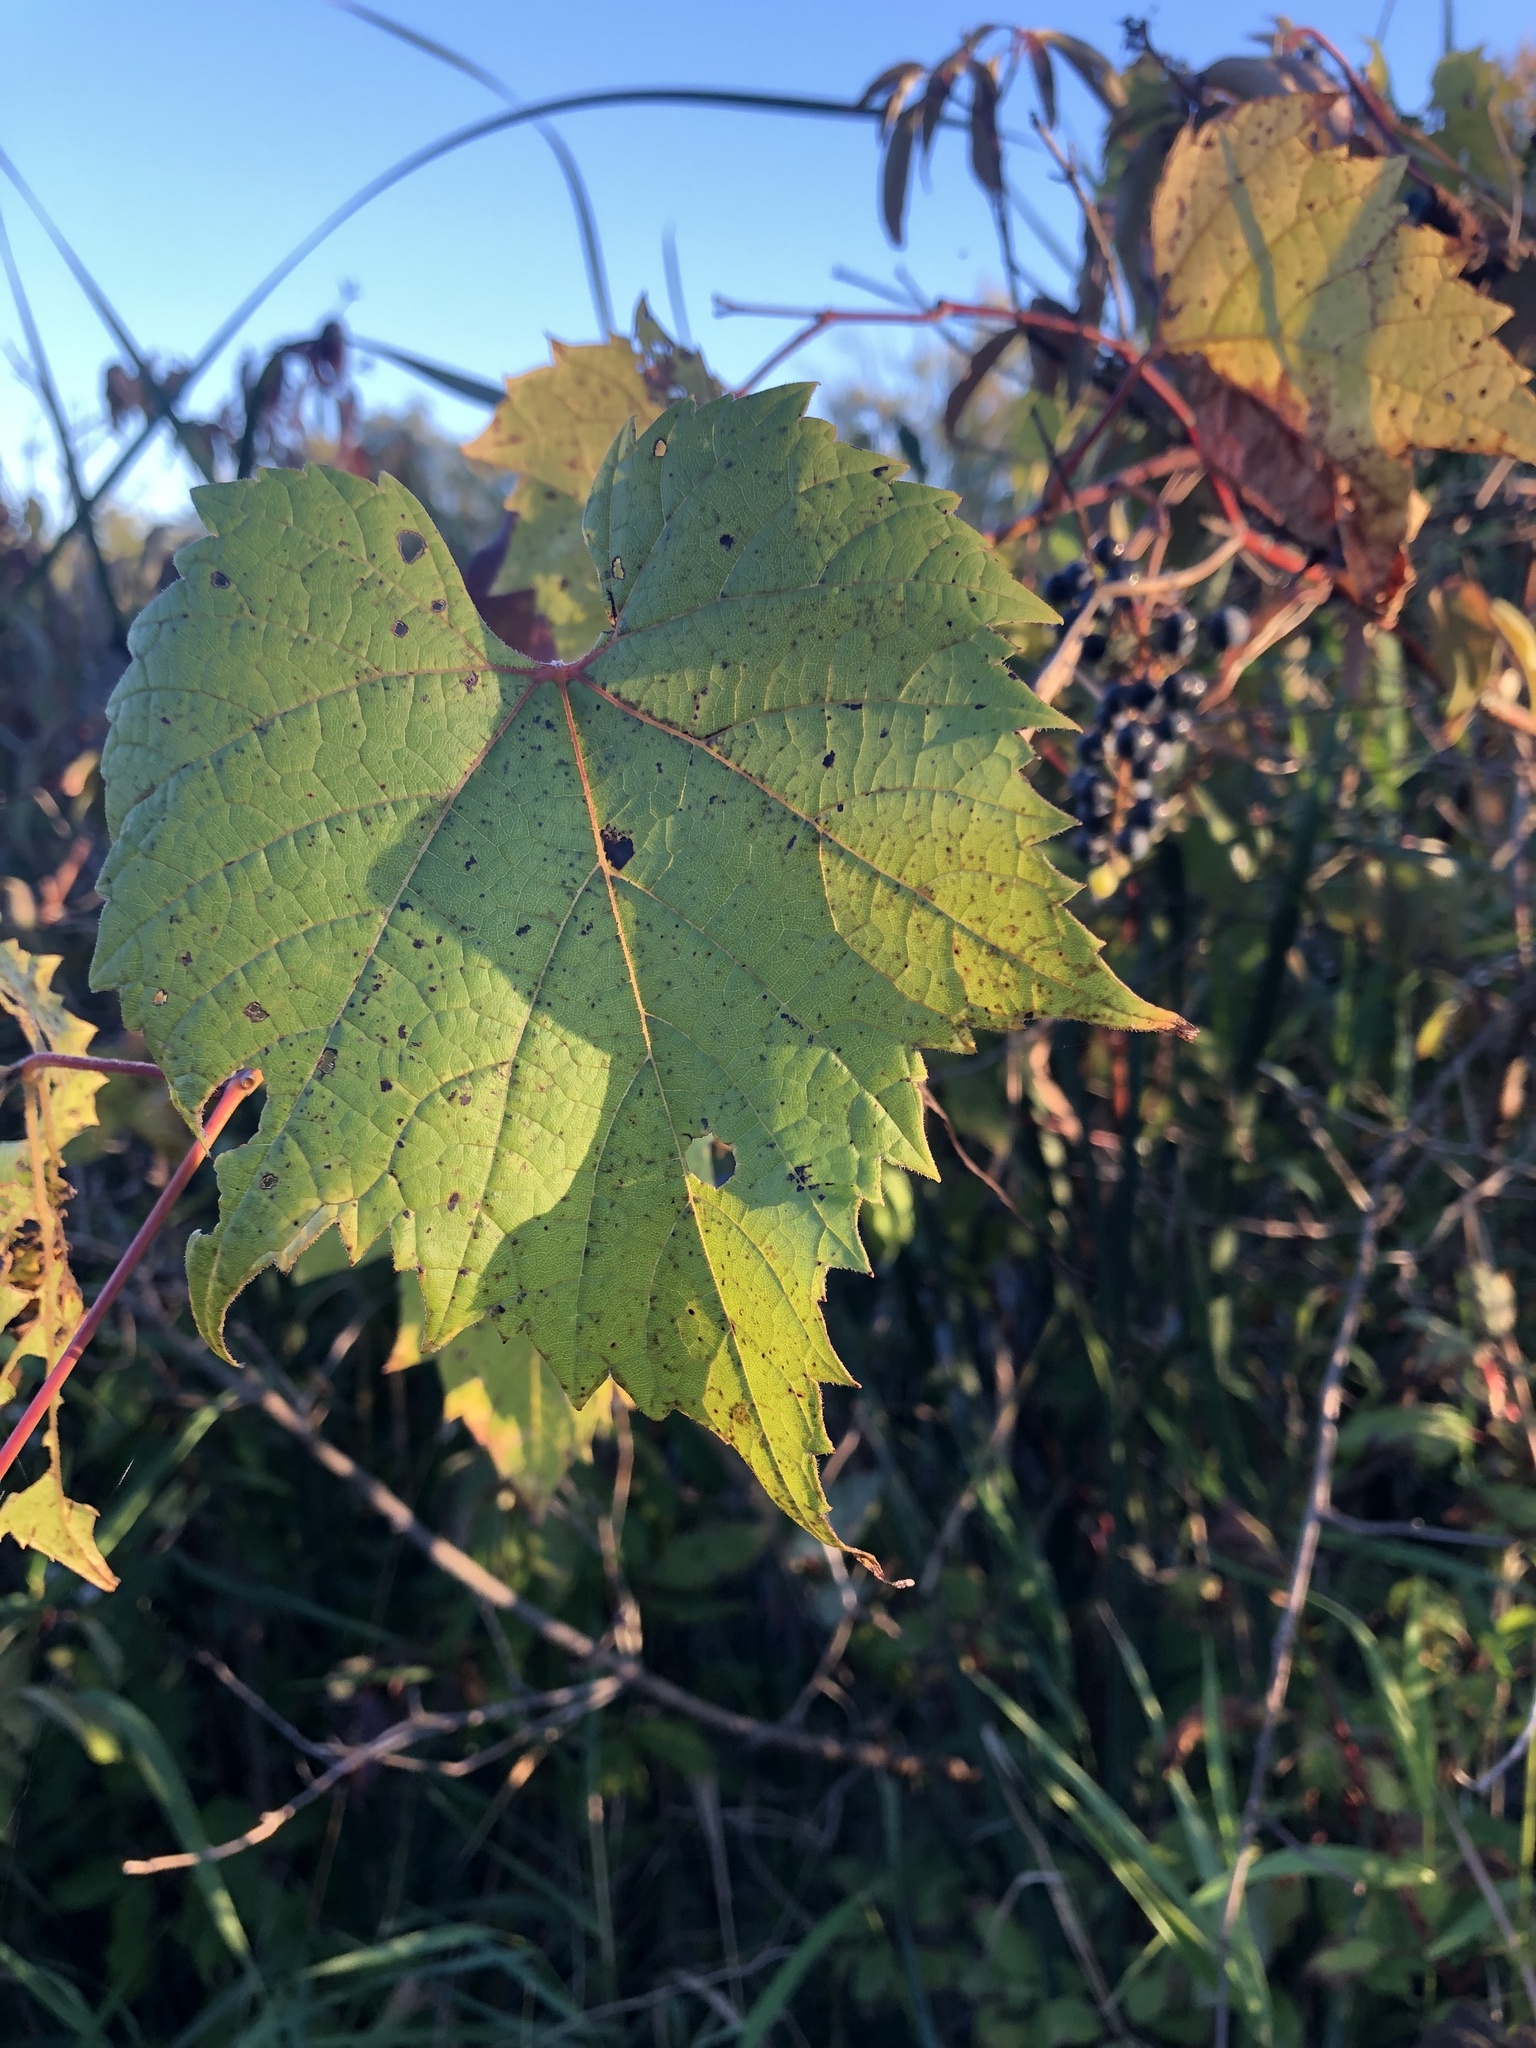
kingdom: Plantae
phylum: Tracheophyta
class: Magnoliopsida
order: Vitales
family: Vitaceae
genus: Vitis
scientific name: Vitis riparia
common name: Frost grape
